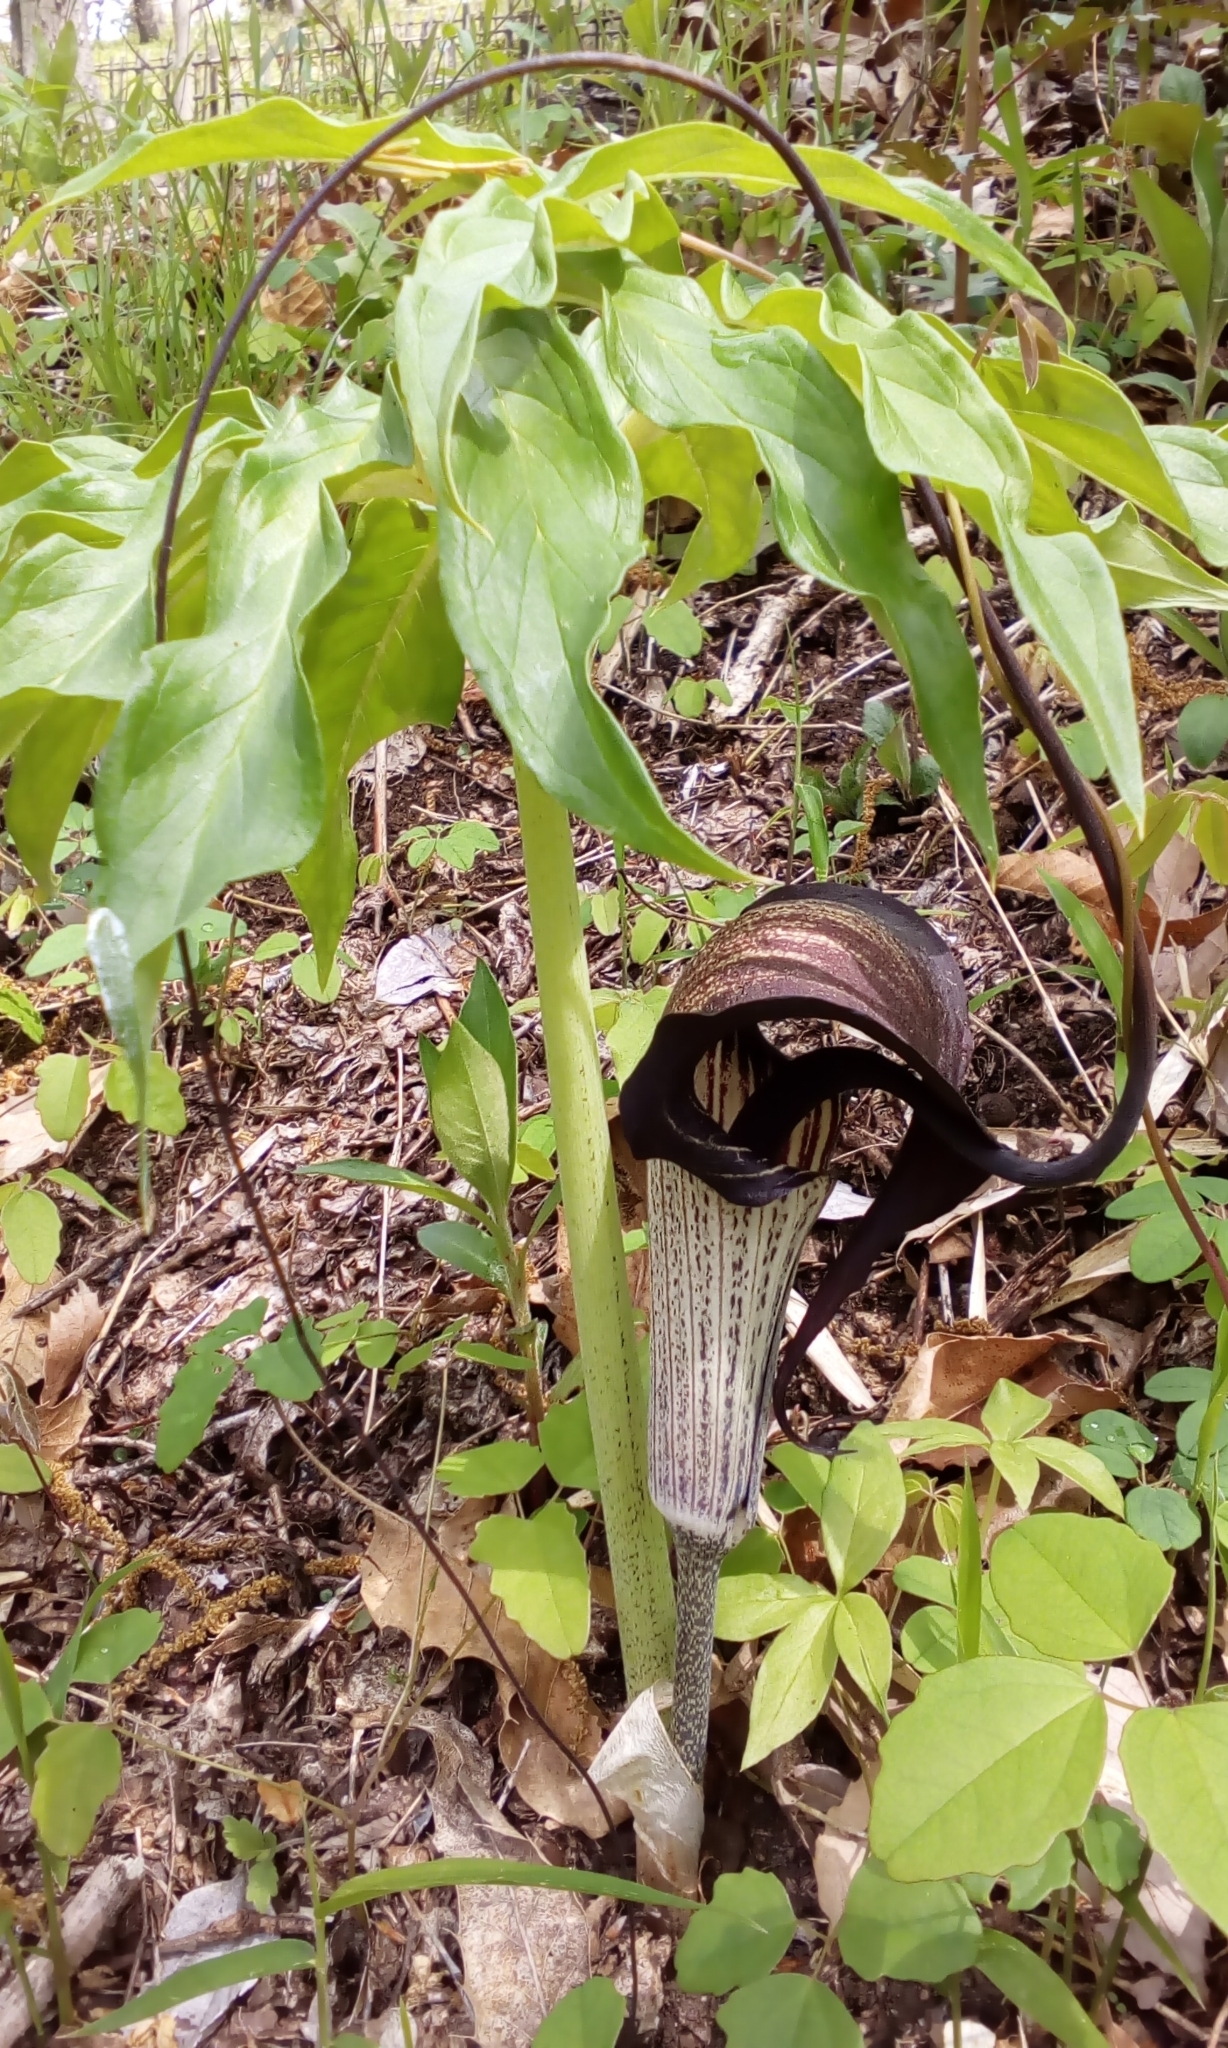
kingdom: Plantae
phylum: Tracheophyta
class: Liliopsida
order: Alismatales
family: Araceae
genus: Arisaema
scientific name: Arisaema thunbergii
